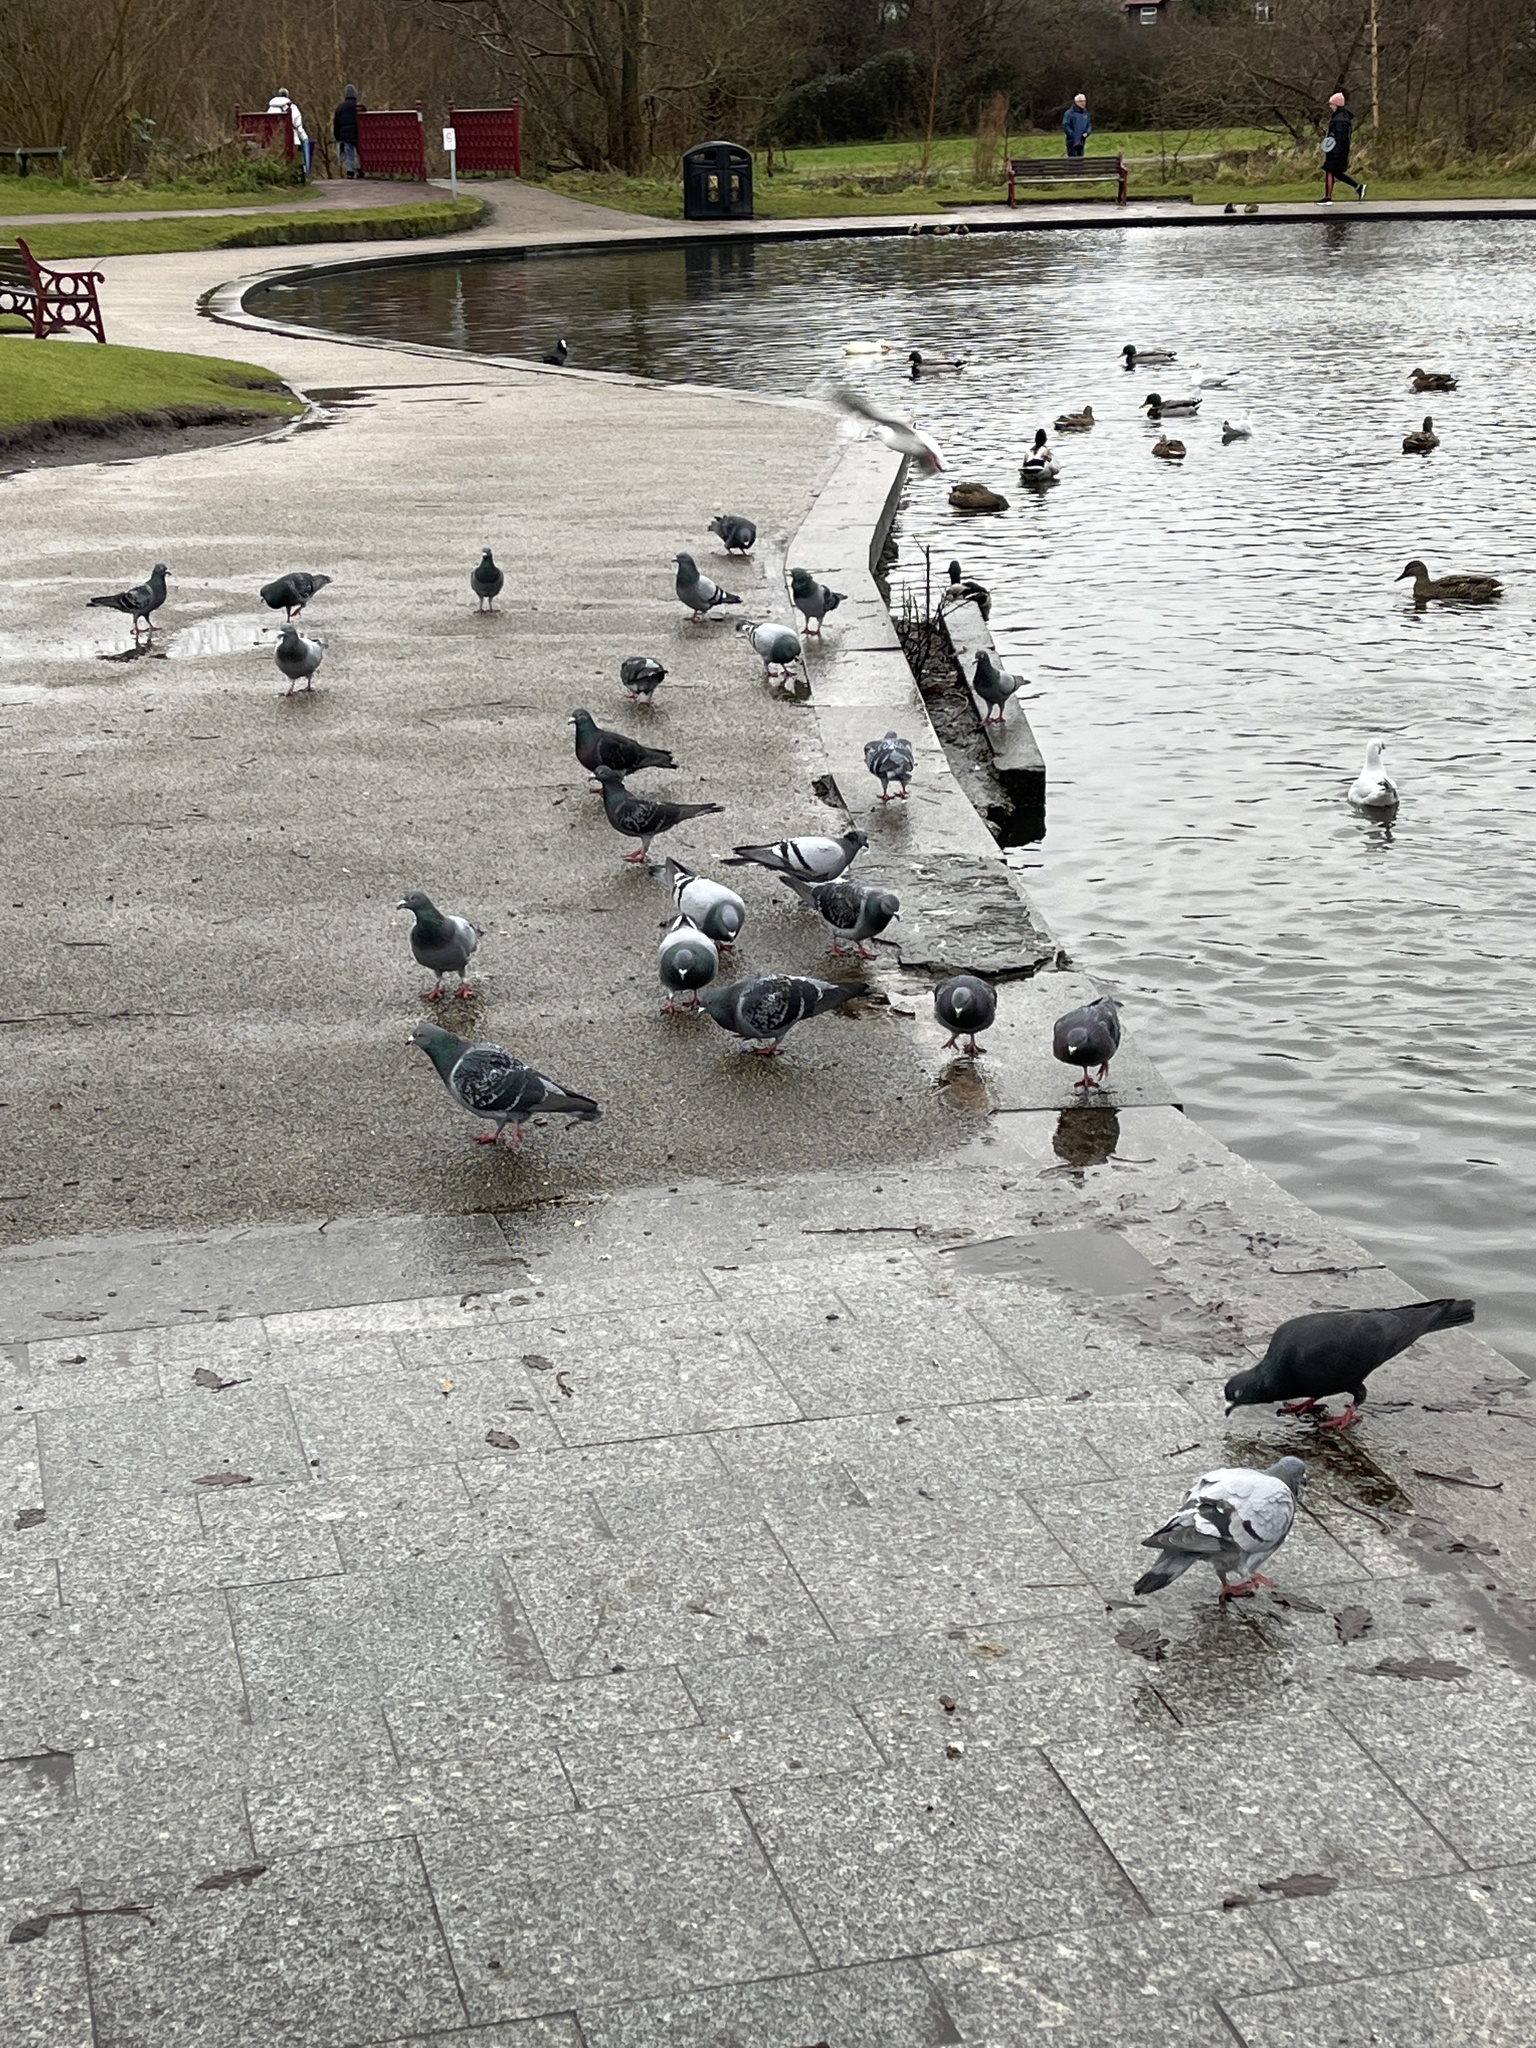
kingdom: Animalia
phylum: Chordata
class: Aves
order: Columbiformes
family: Columbidae
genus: Columba
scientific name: Columba livia
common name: Rock pigeon
